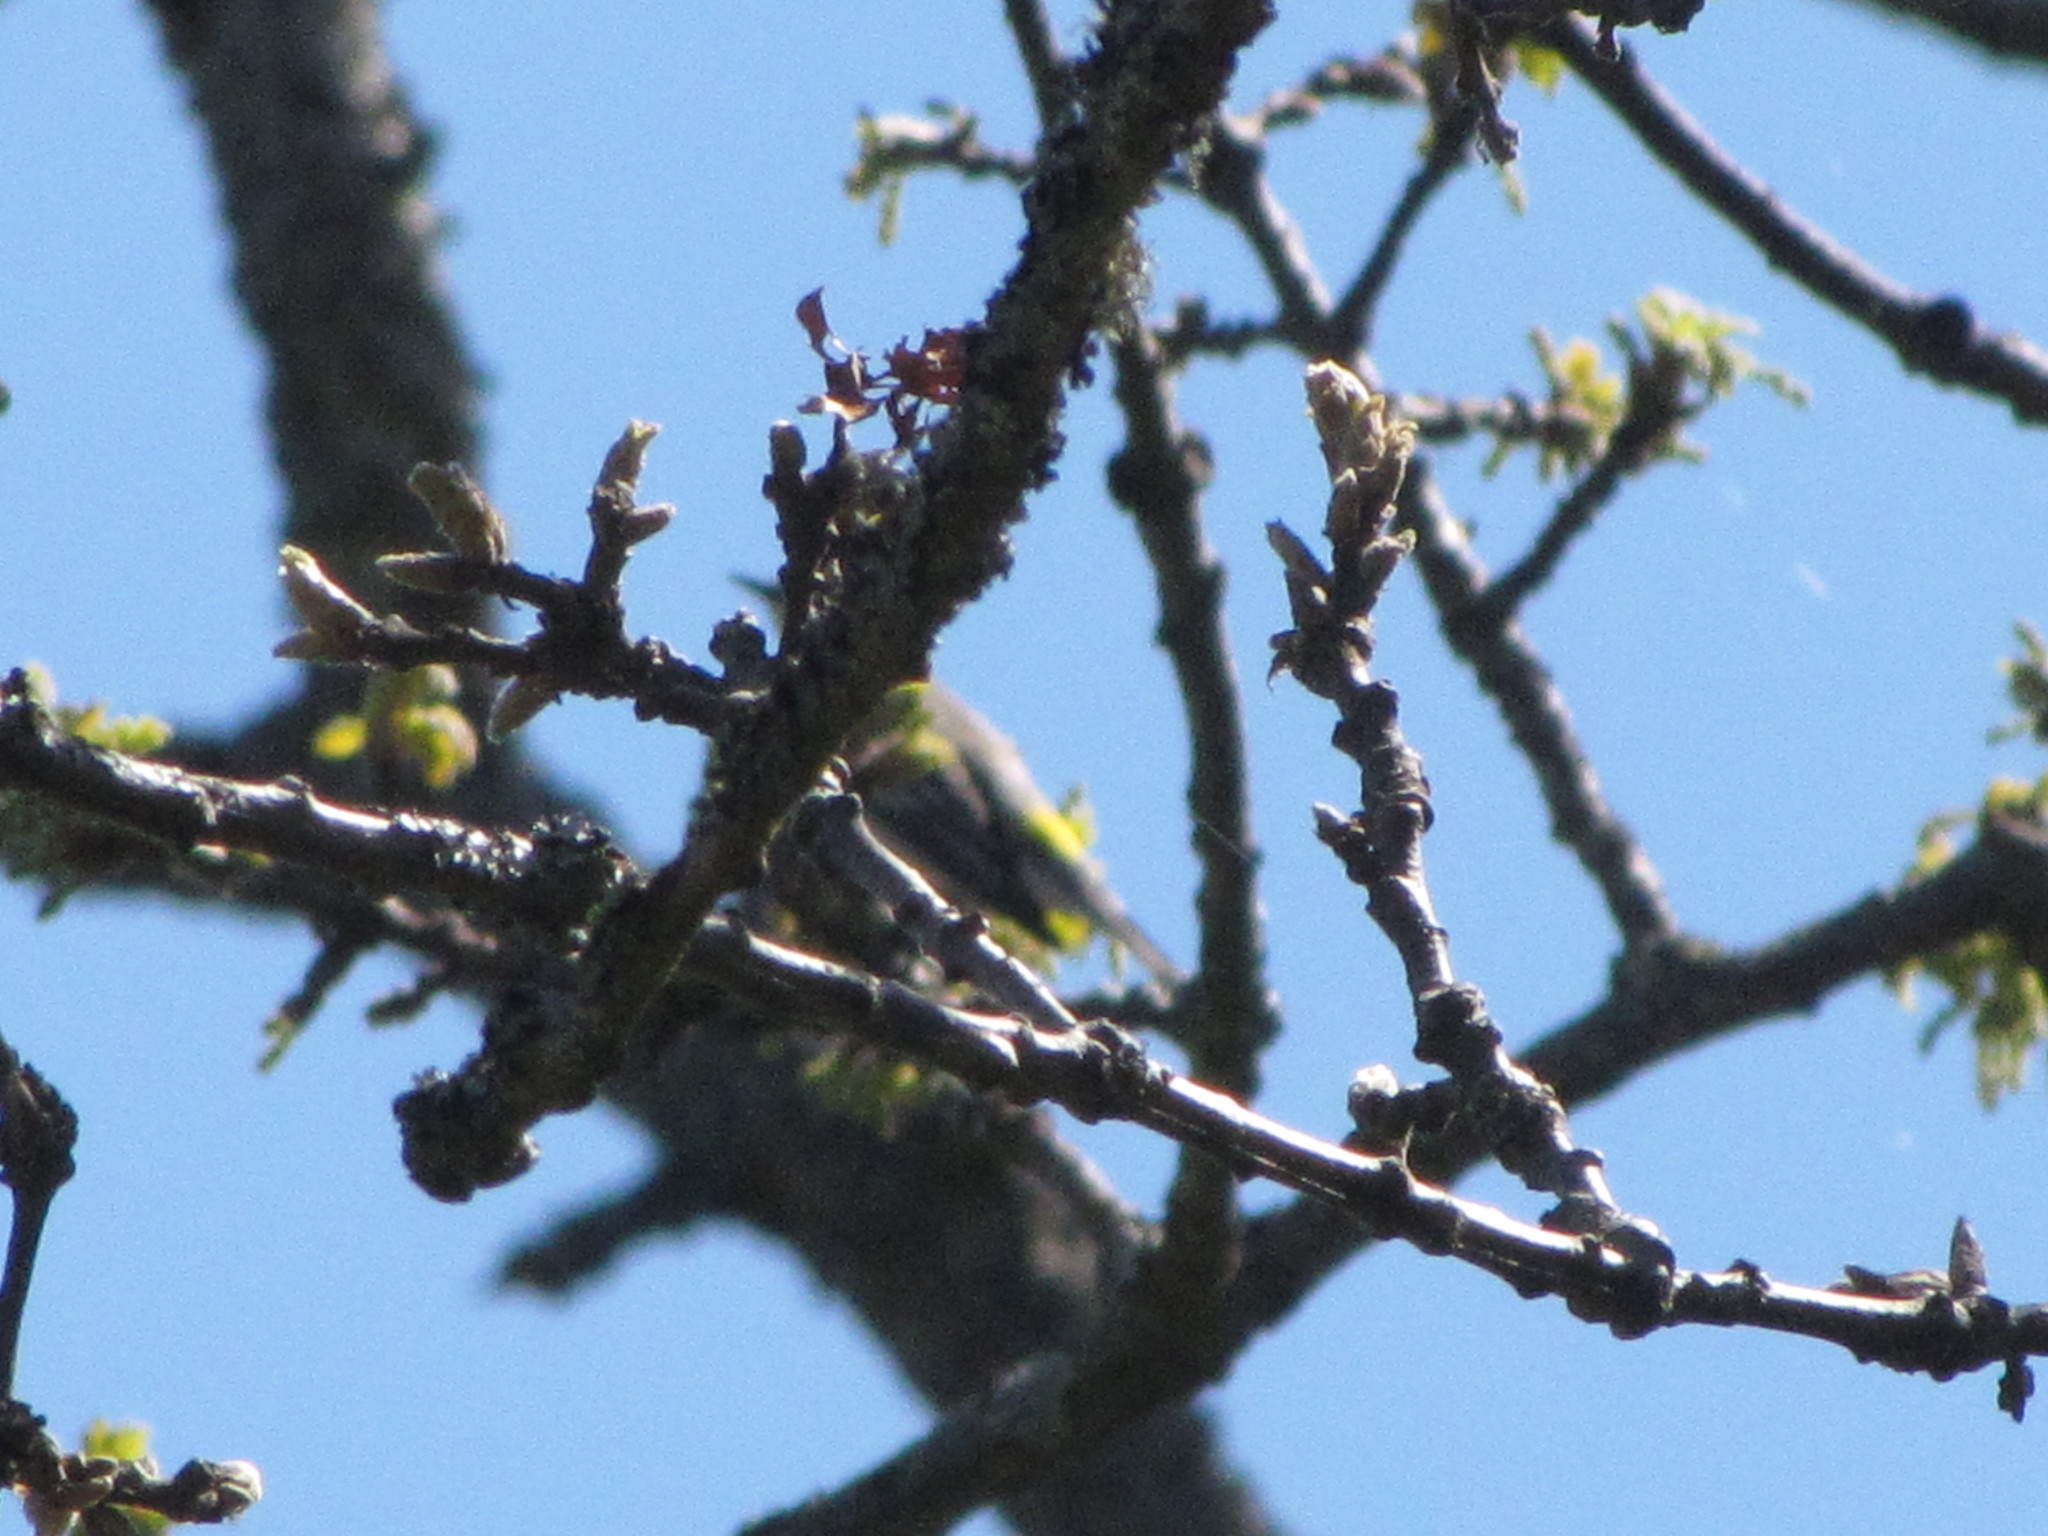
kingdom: Animalia
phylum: Chordata
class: Aves
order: Passeriformes
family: Parulidae
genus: Setophaga
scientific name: Setophaga coronata
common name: Myrtle warbler
